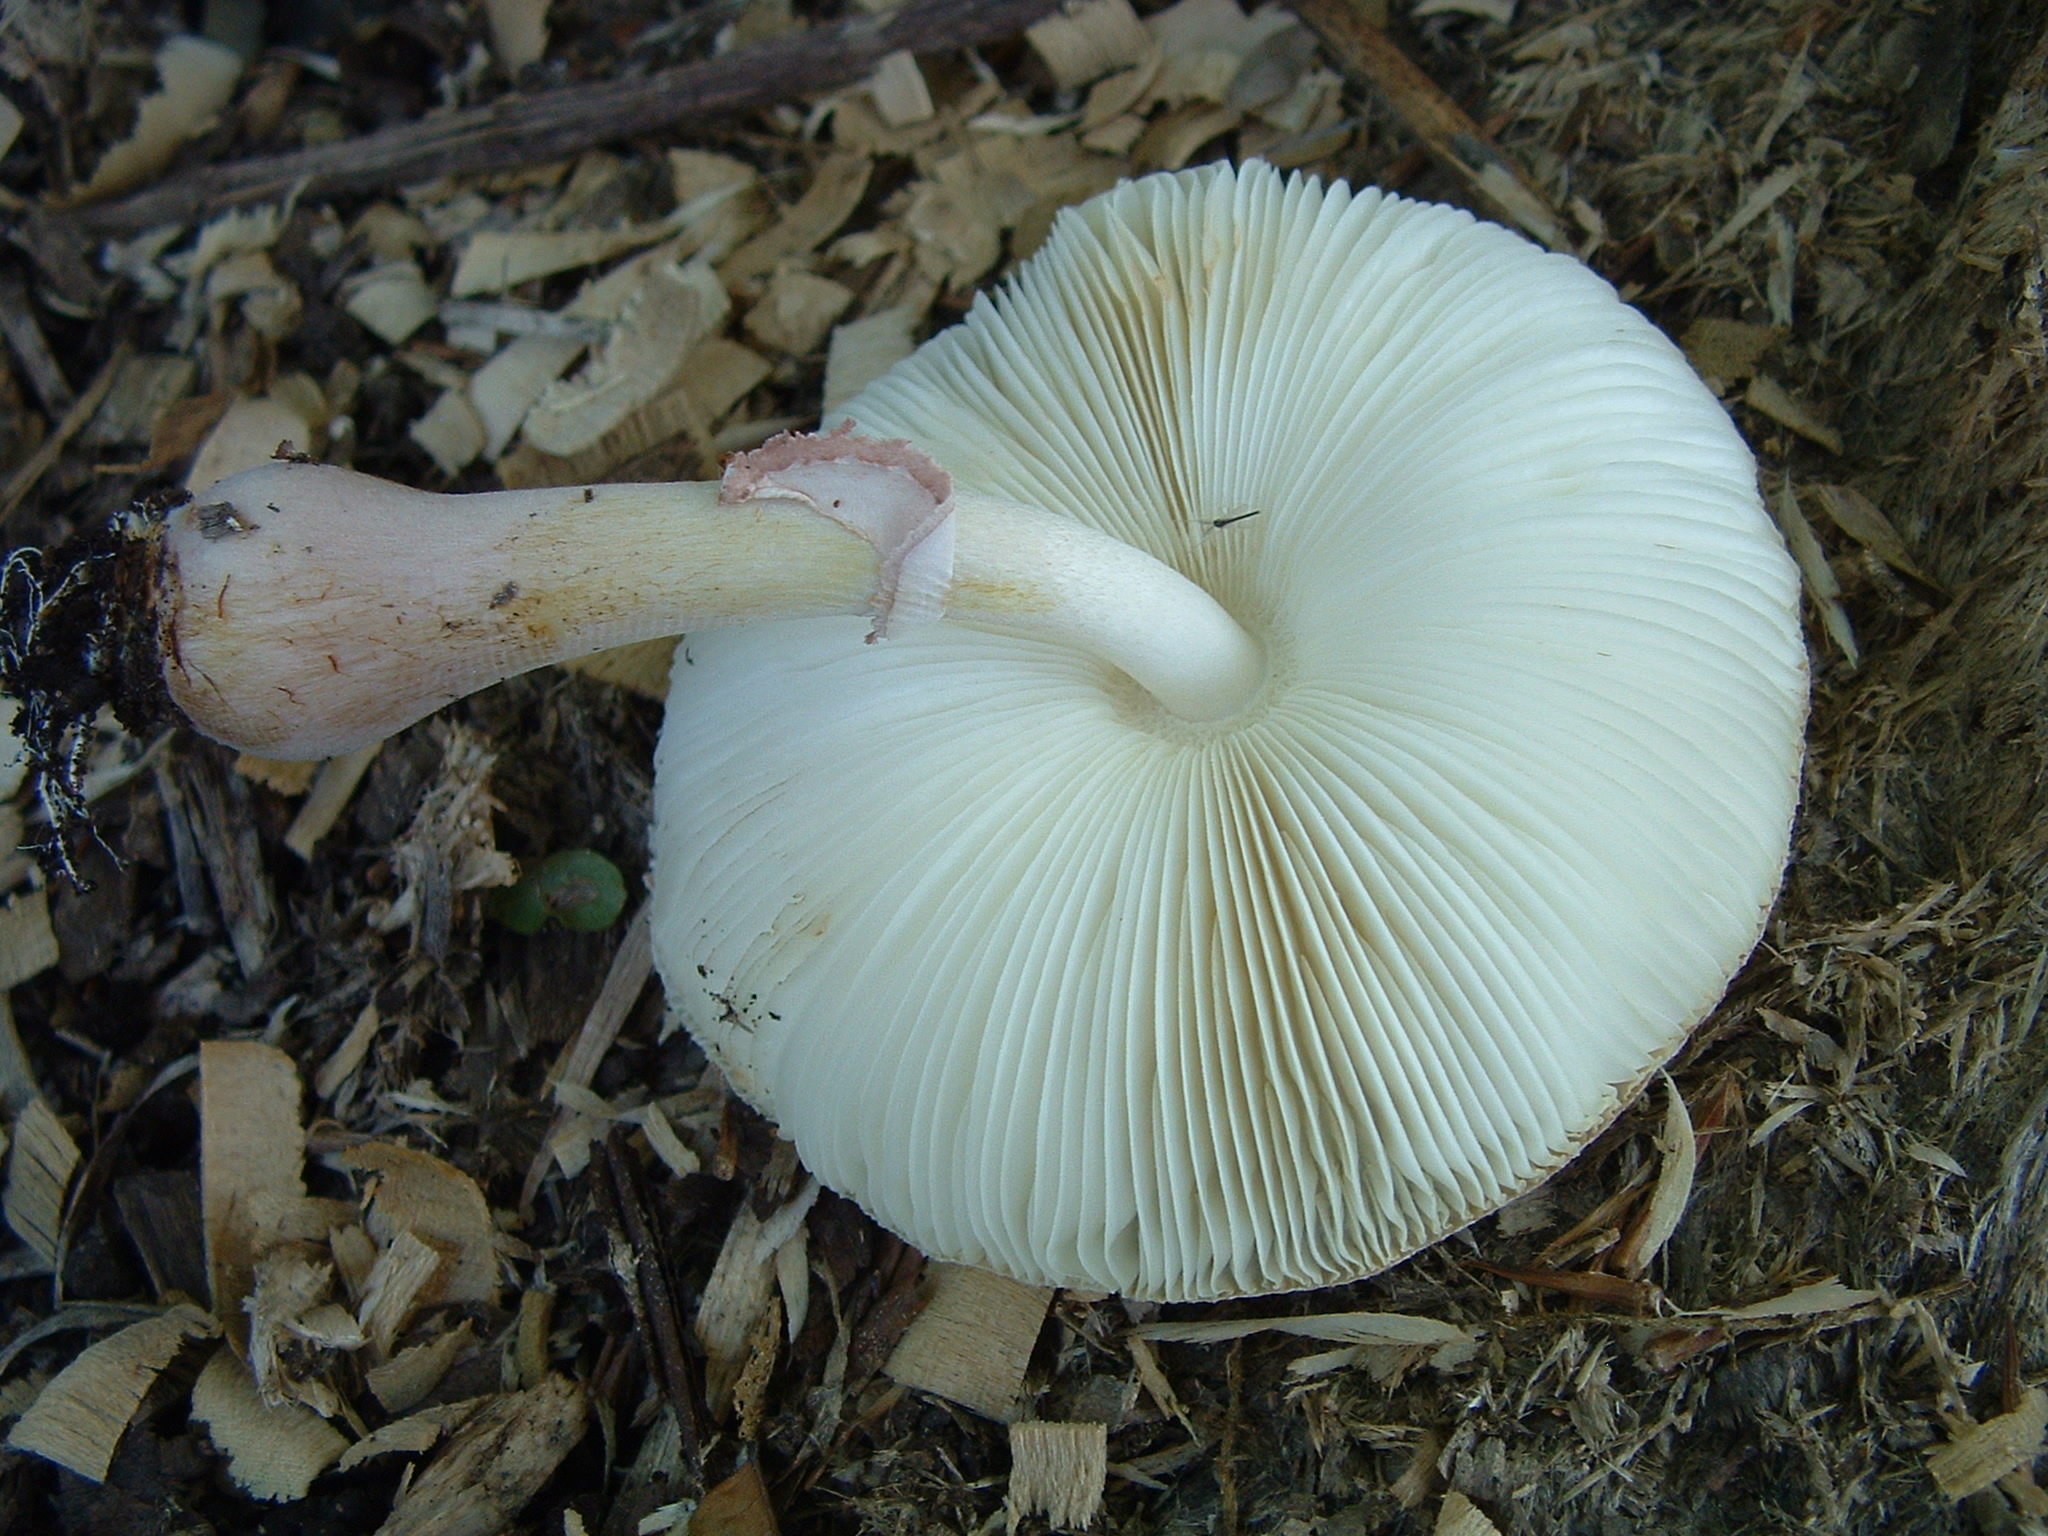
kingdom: Fungi
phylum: Basidiomycota
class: Agaricomycetes
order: Agaricales
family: Agaricaceae
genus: Leucoagaricus
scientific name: Leucoagaricus americanus
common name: Reddening lepiota
